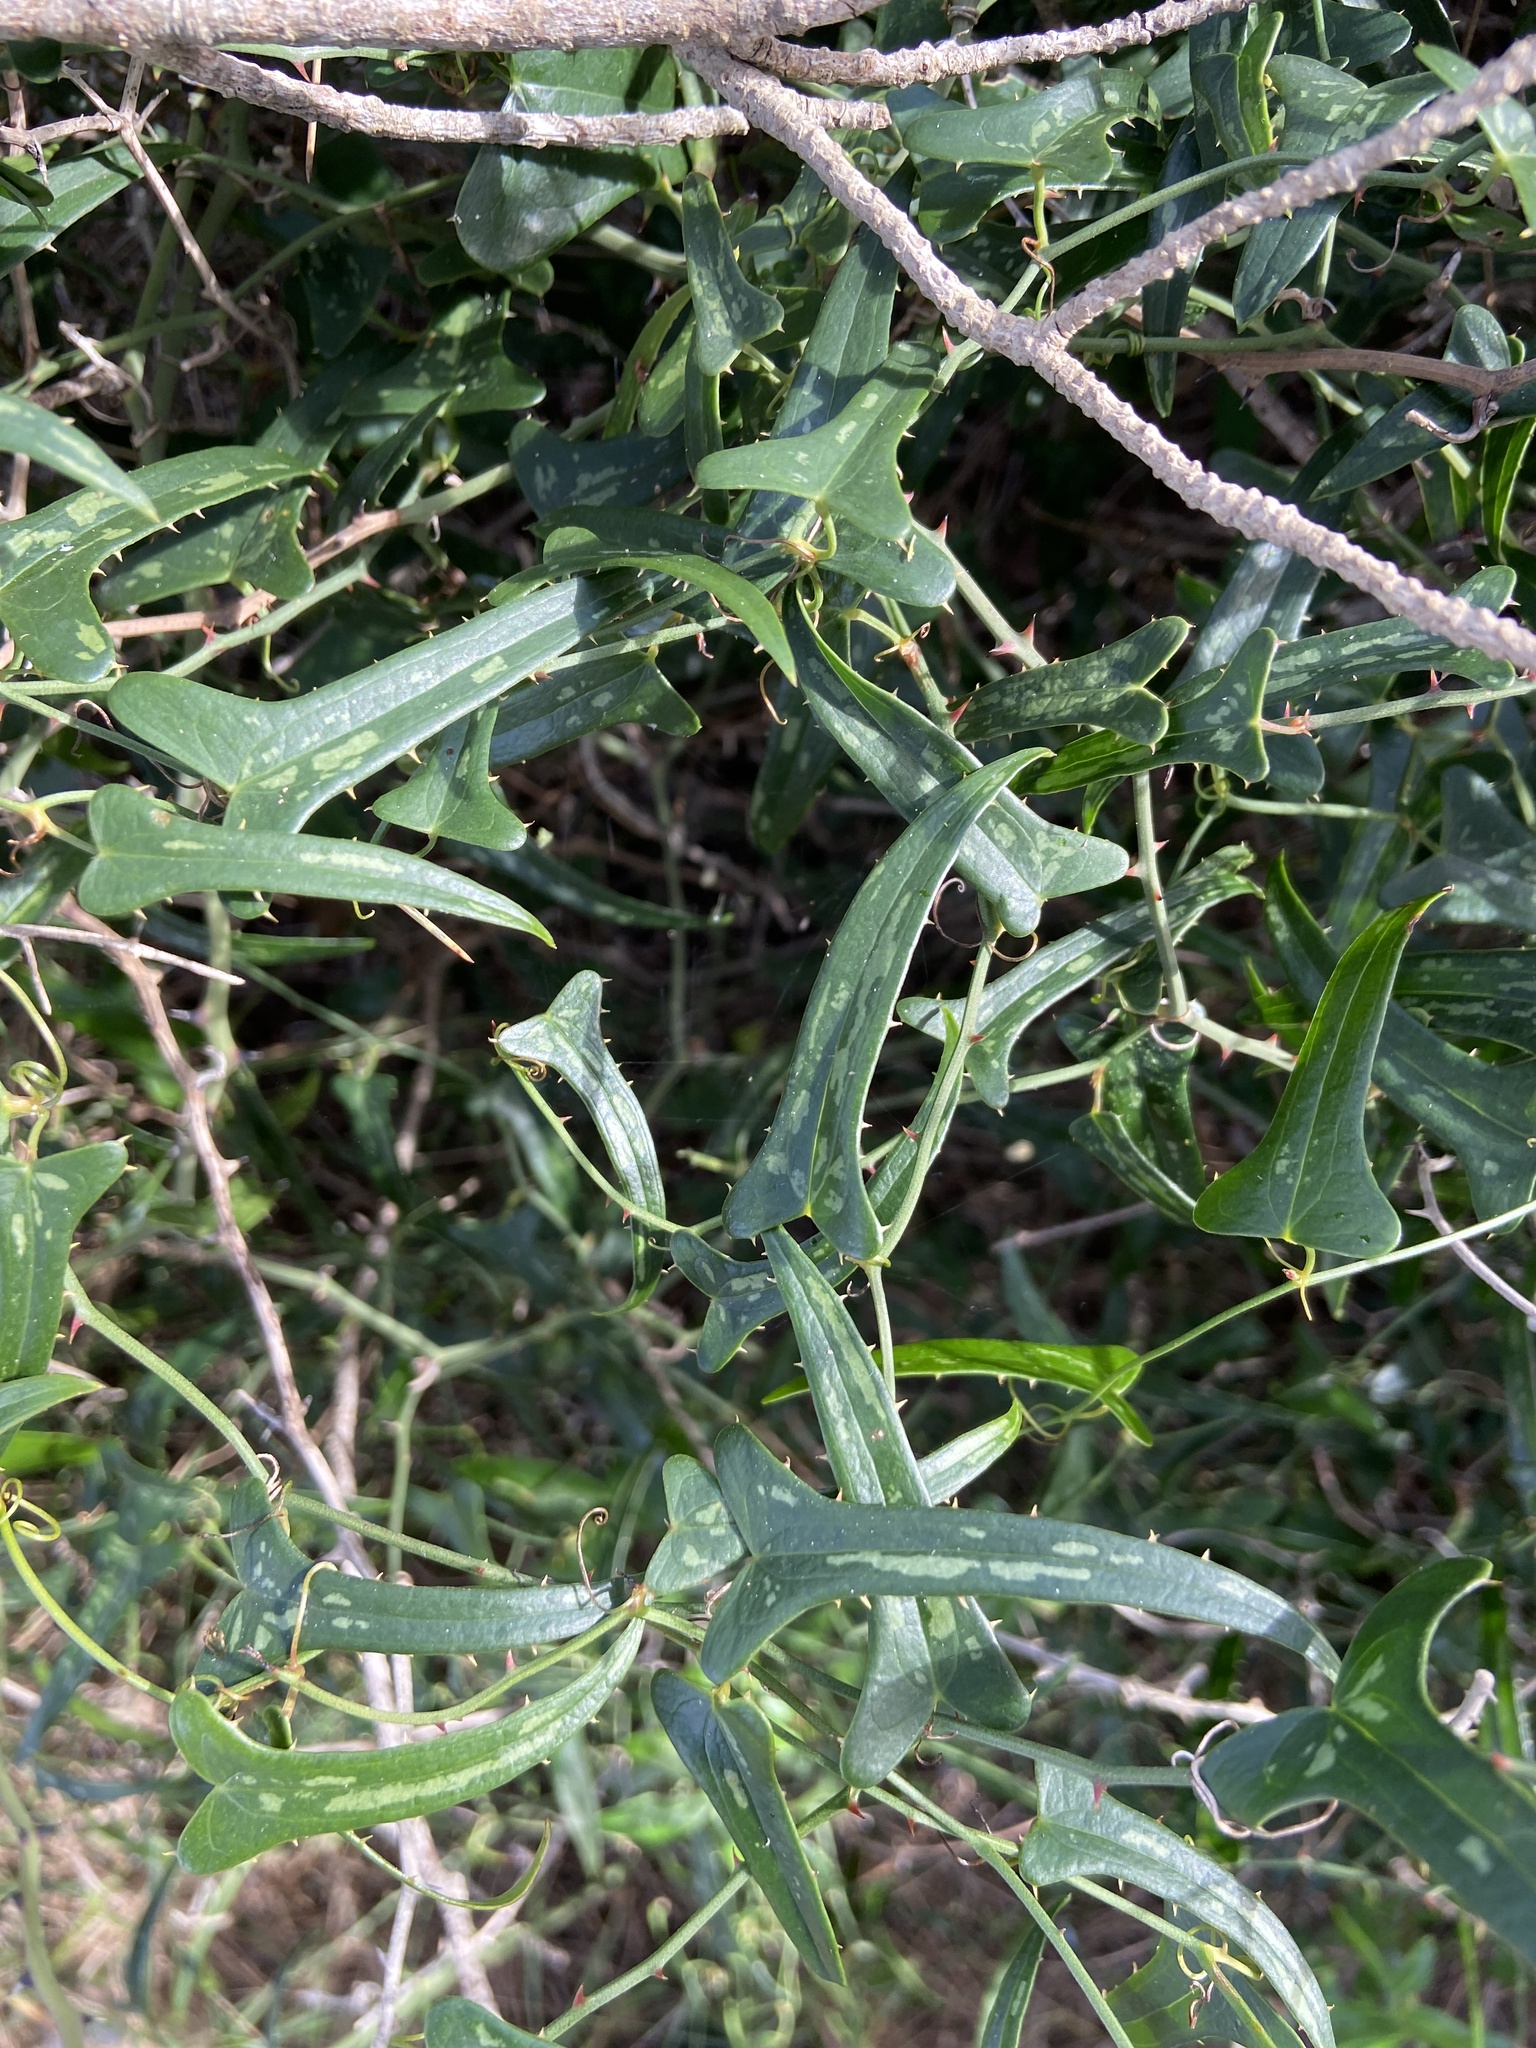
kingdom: Plantae
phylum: Tracheophyta
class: Liliopsida
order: Liliales
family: Smilacaceae
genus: Smilax
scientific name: Smilax aspera
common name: Common smilax
